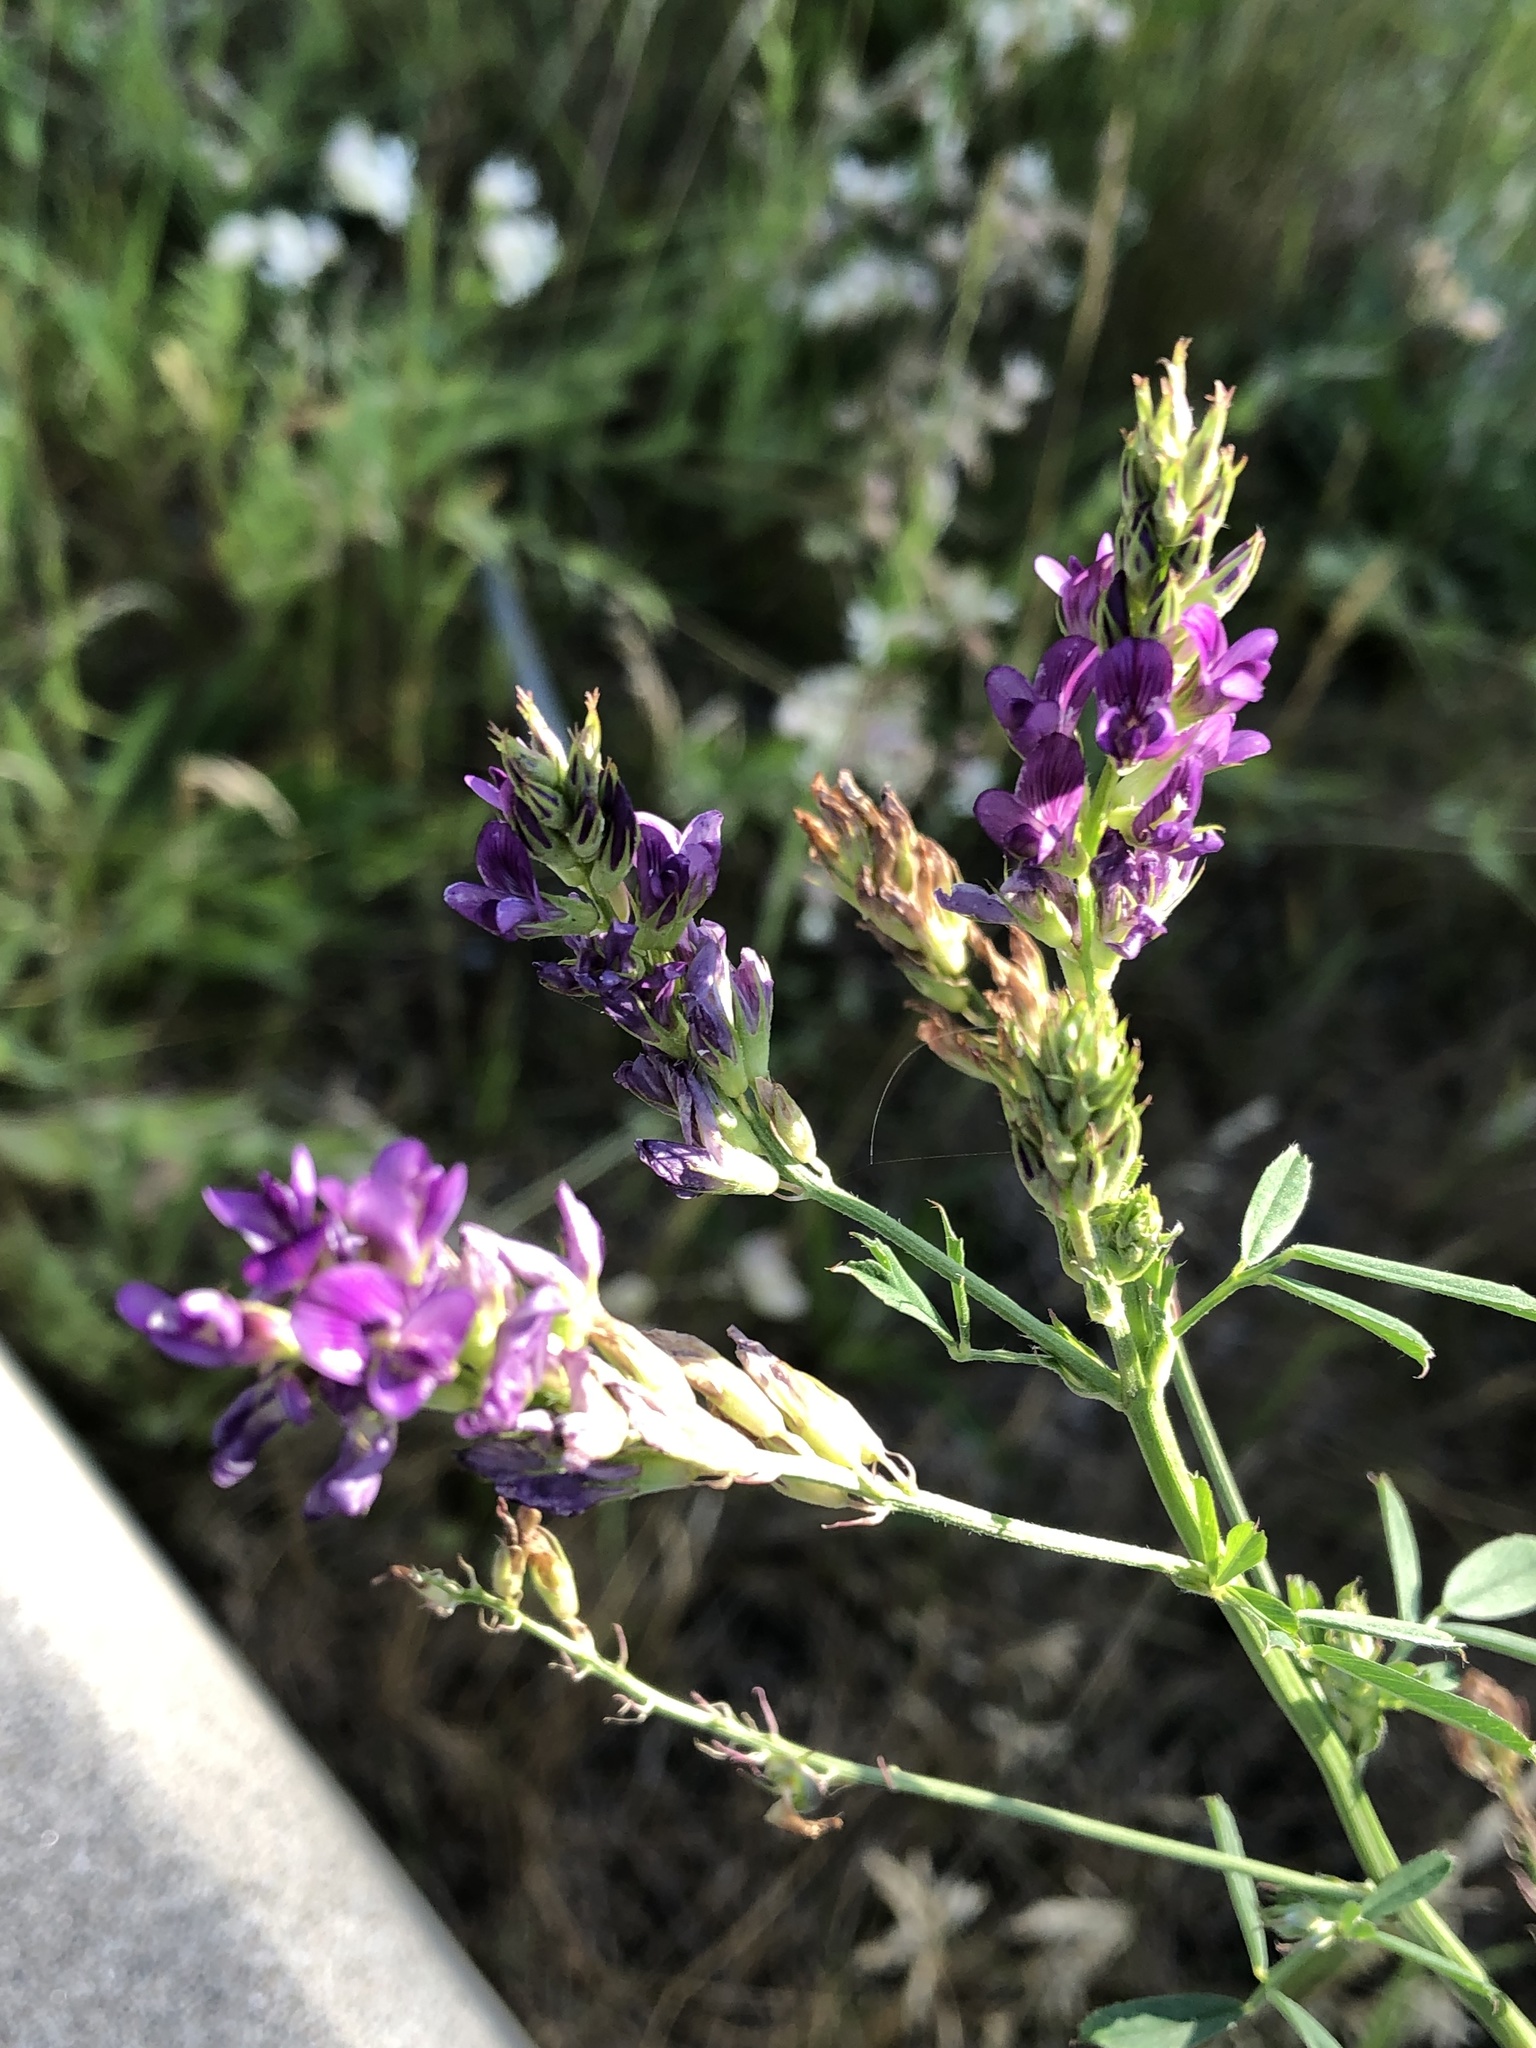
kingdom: Plantae
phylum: Tracheophyta
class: Magnoliopsida
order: Fabales
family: Fabaceae
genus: Medicago
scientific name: Medicago sativa
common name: Alfalfa
